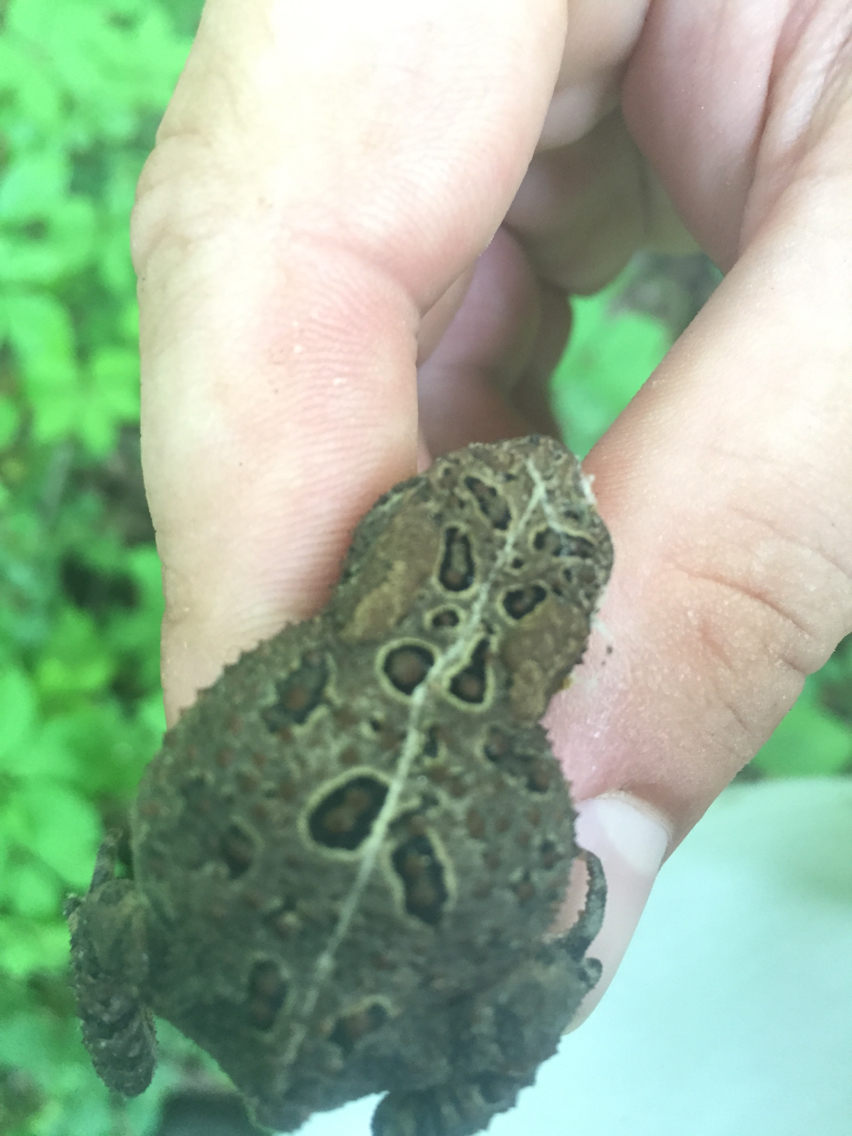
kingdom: Animalia
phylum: Chordata
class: Amphibia
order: Anura
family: Bufonidae
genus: Anaxyrus
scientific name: Anaxyrus americanus
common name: American toad
